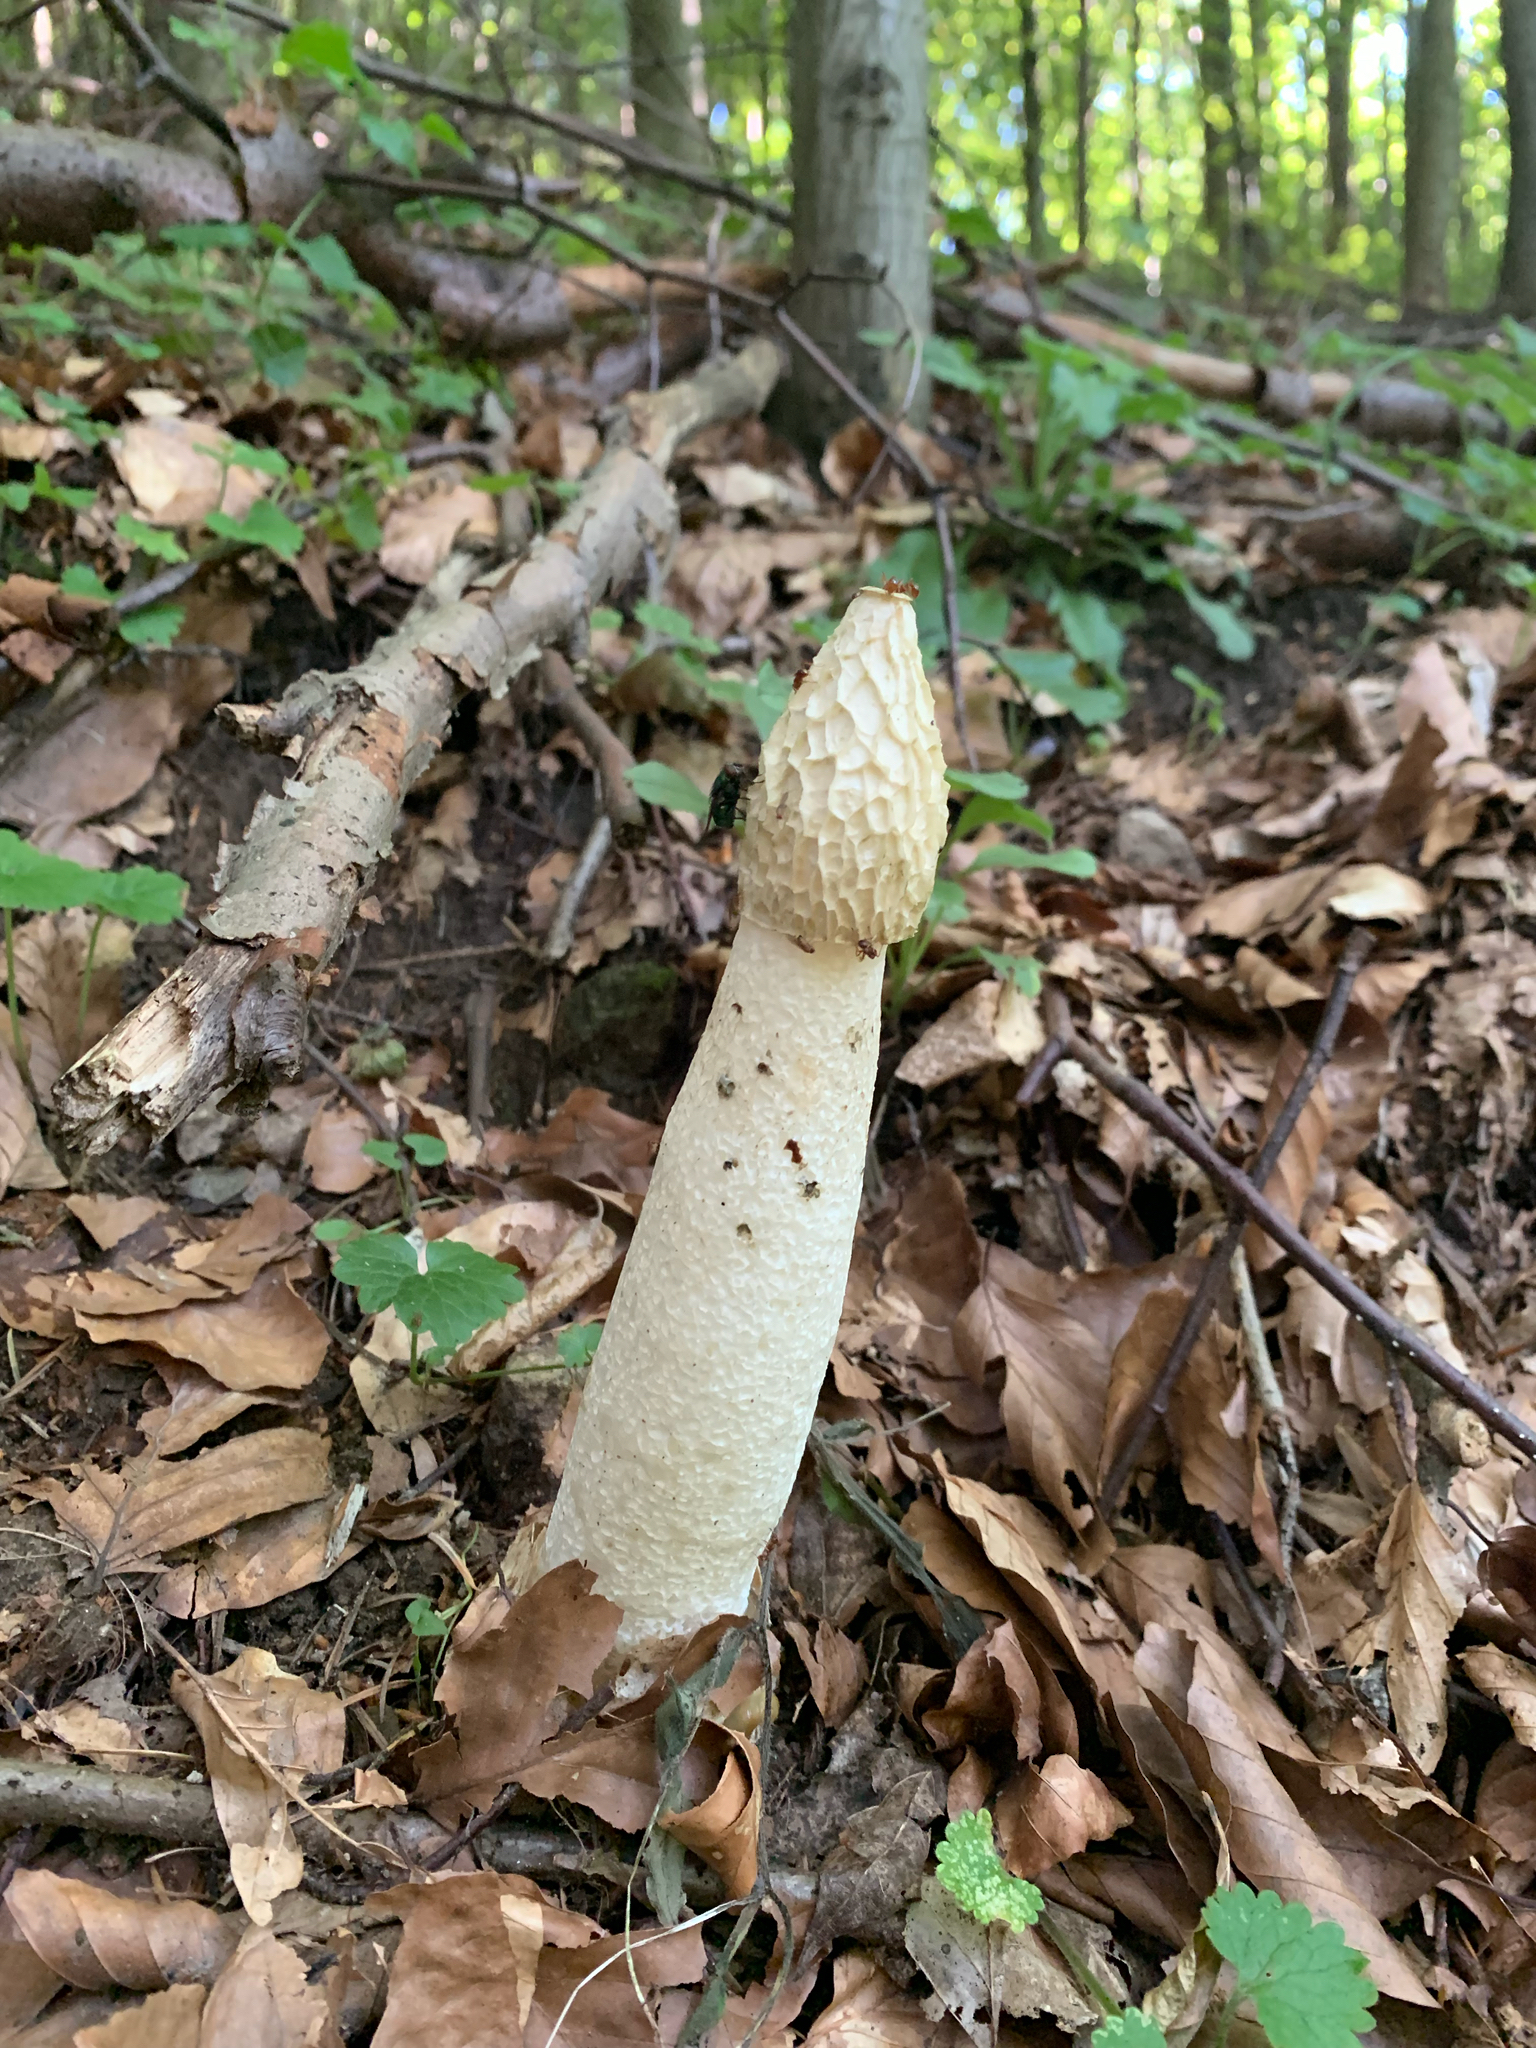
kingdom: Fungi
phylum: Basidiomycota
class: Agaricomycetes
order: Phallales
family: Phallaceae
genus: Phallus
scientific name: Phallus impudicus
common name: Common stinkhorn
